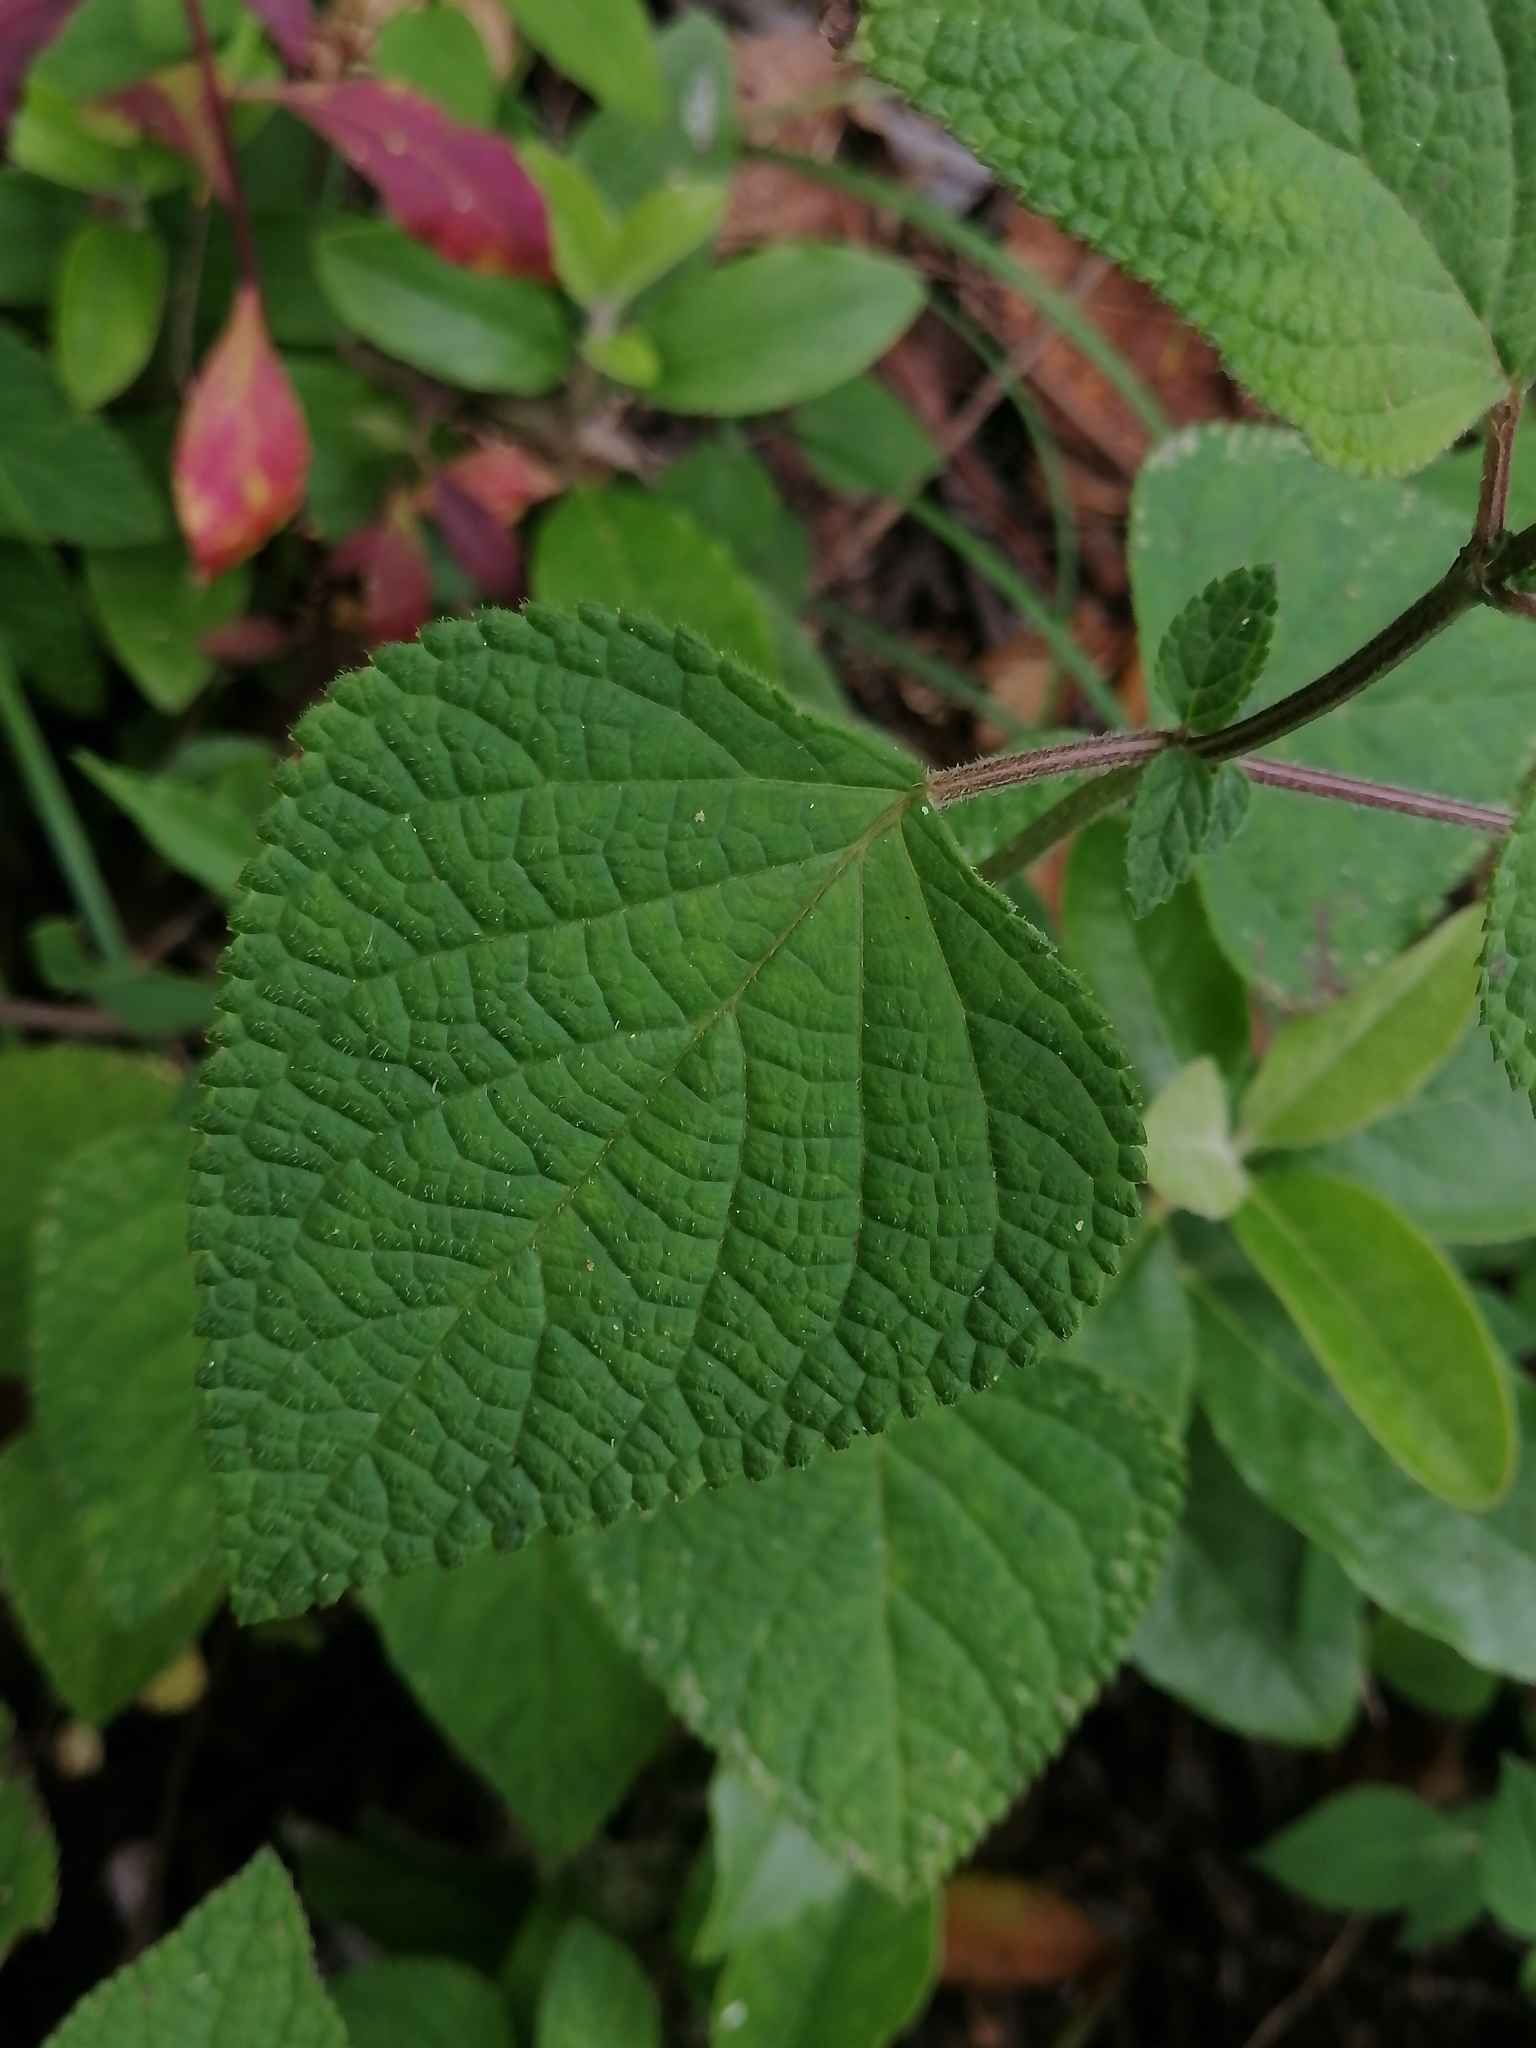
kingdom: Plantae
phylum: Tracheophyta
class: Magnoliopsida
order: Lamiales
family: Lamiaceae
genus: Salvia
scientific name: Salvia mocinoi
